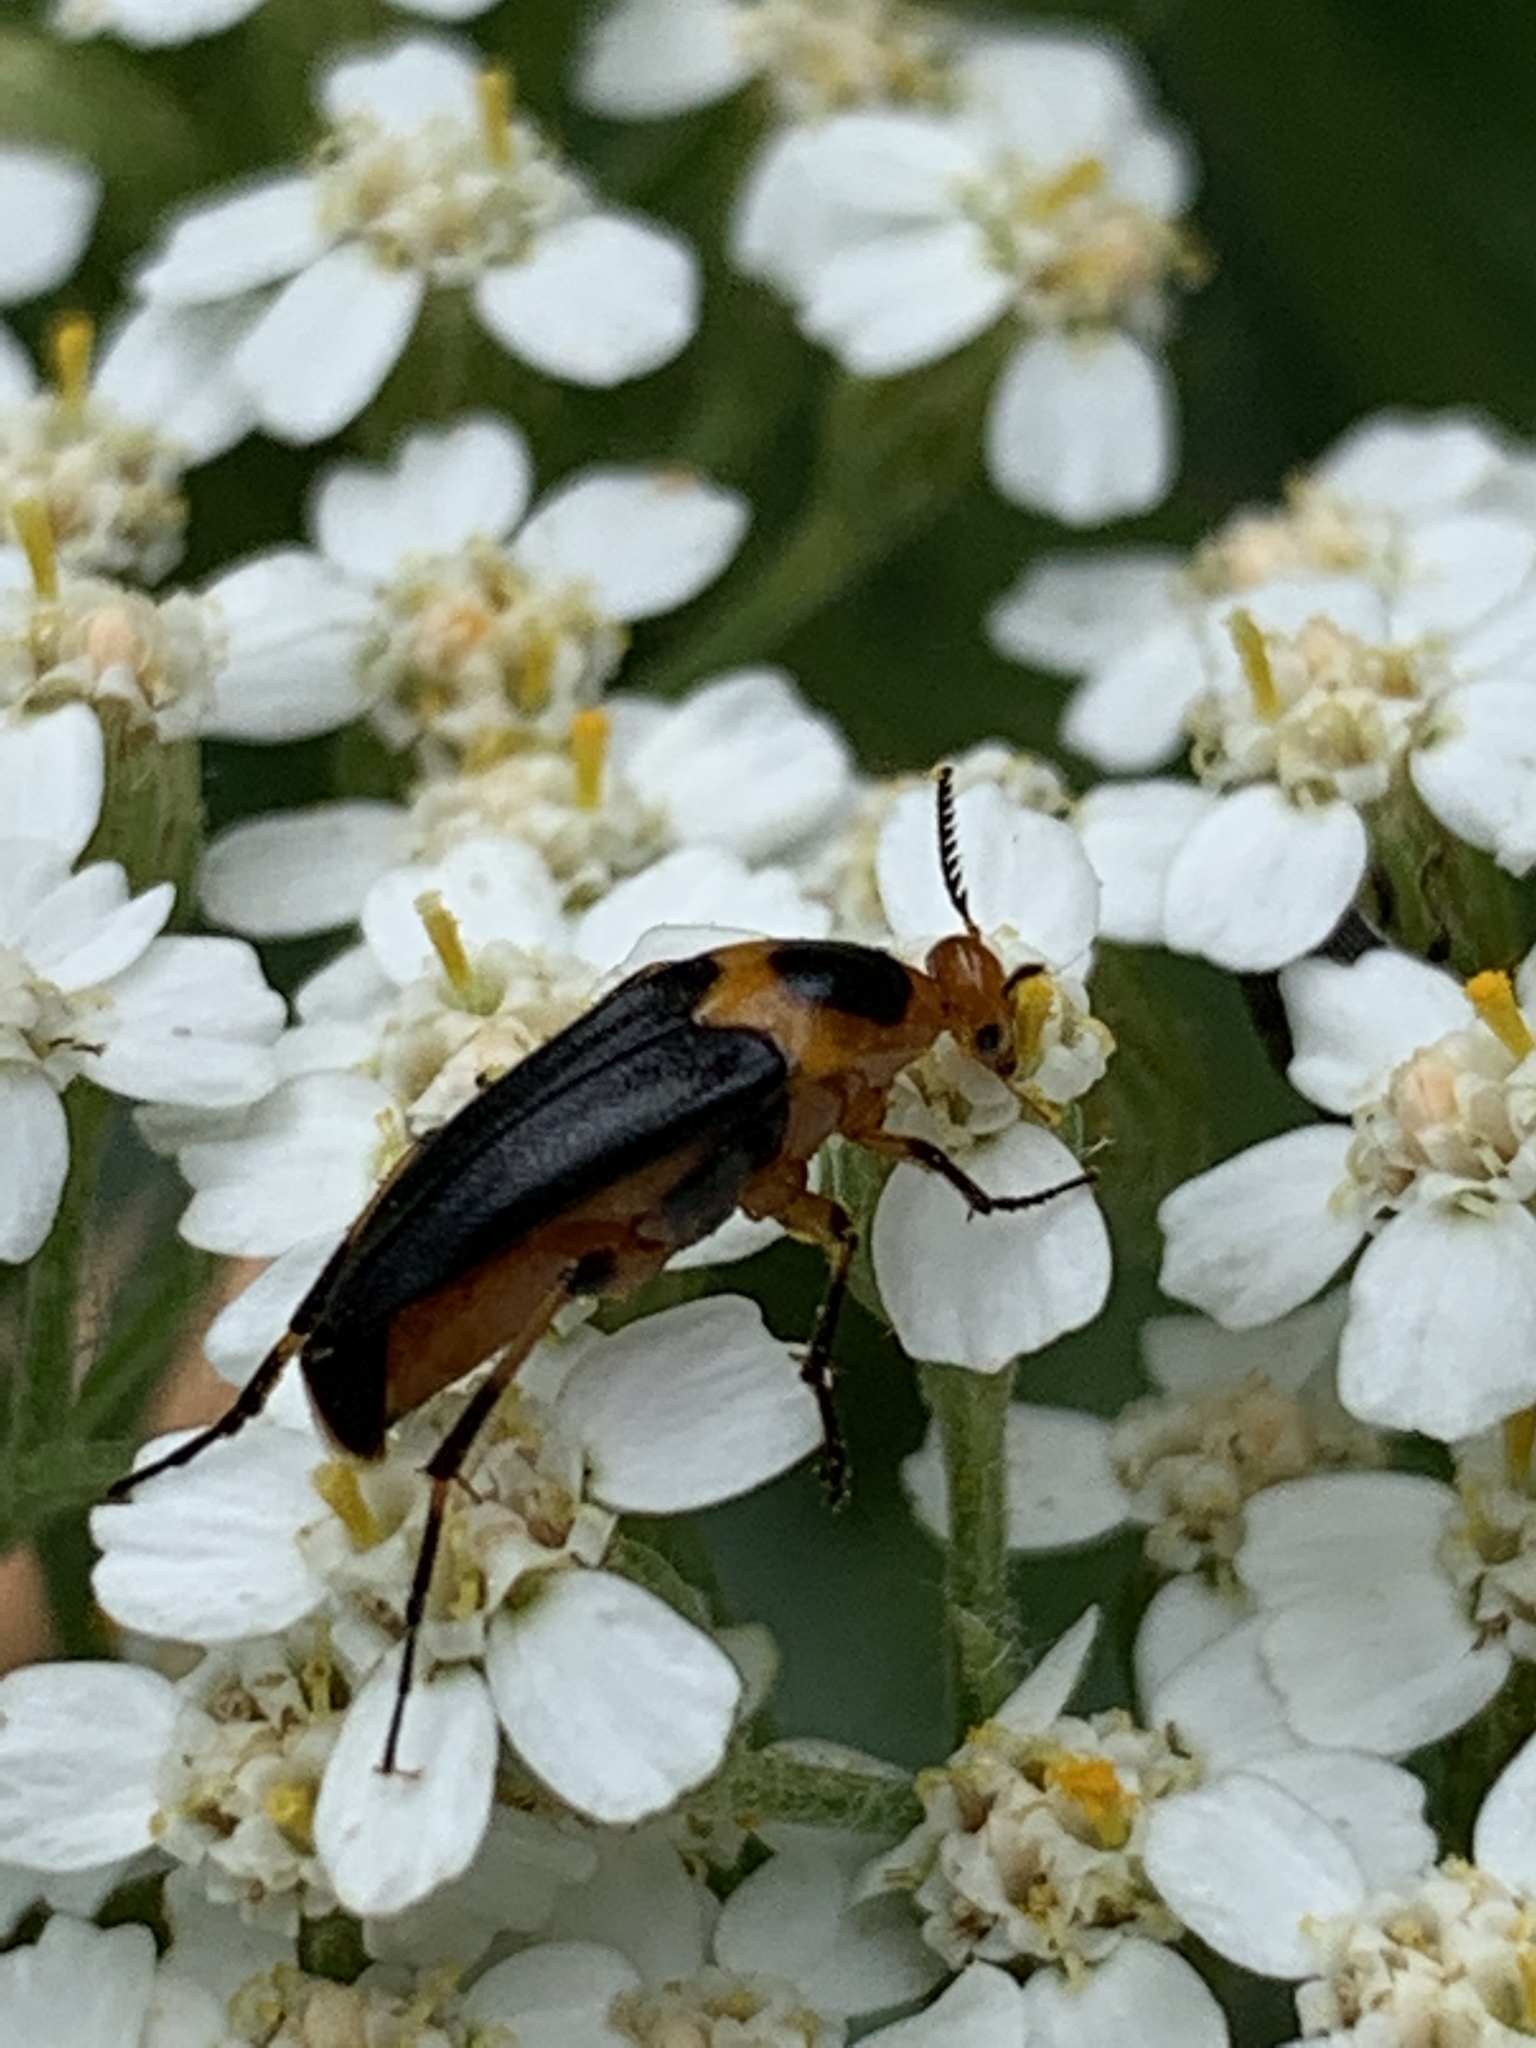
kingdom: Animalia
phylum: Arthropoda
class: Insecta
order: Coleoptera
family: Ripiphoridae
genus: Macrosiagon
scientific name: Macrosiagon limbatum
